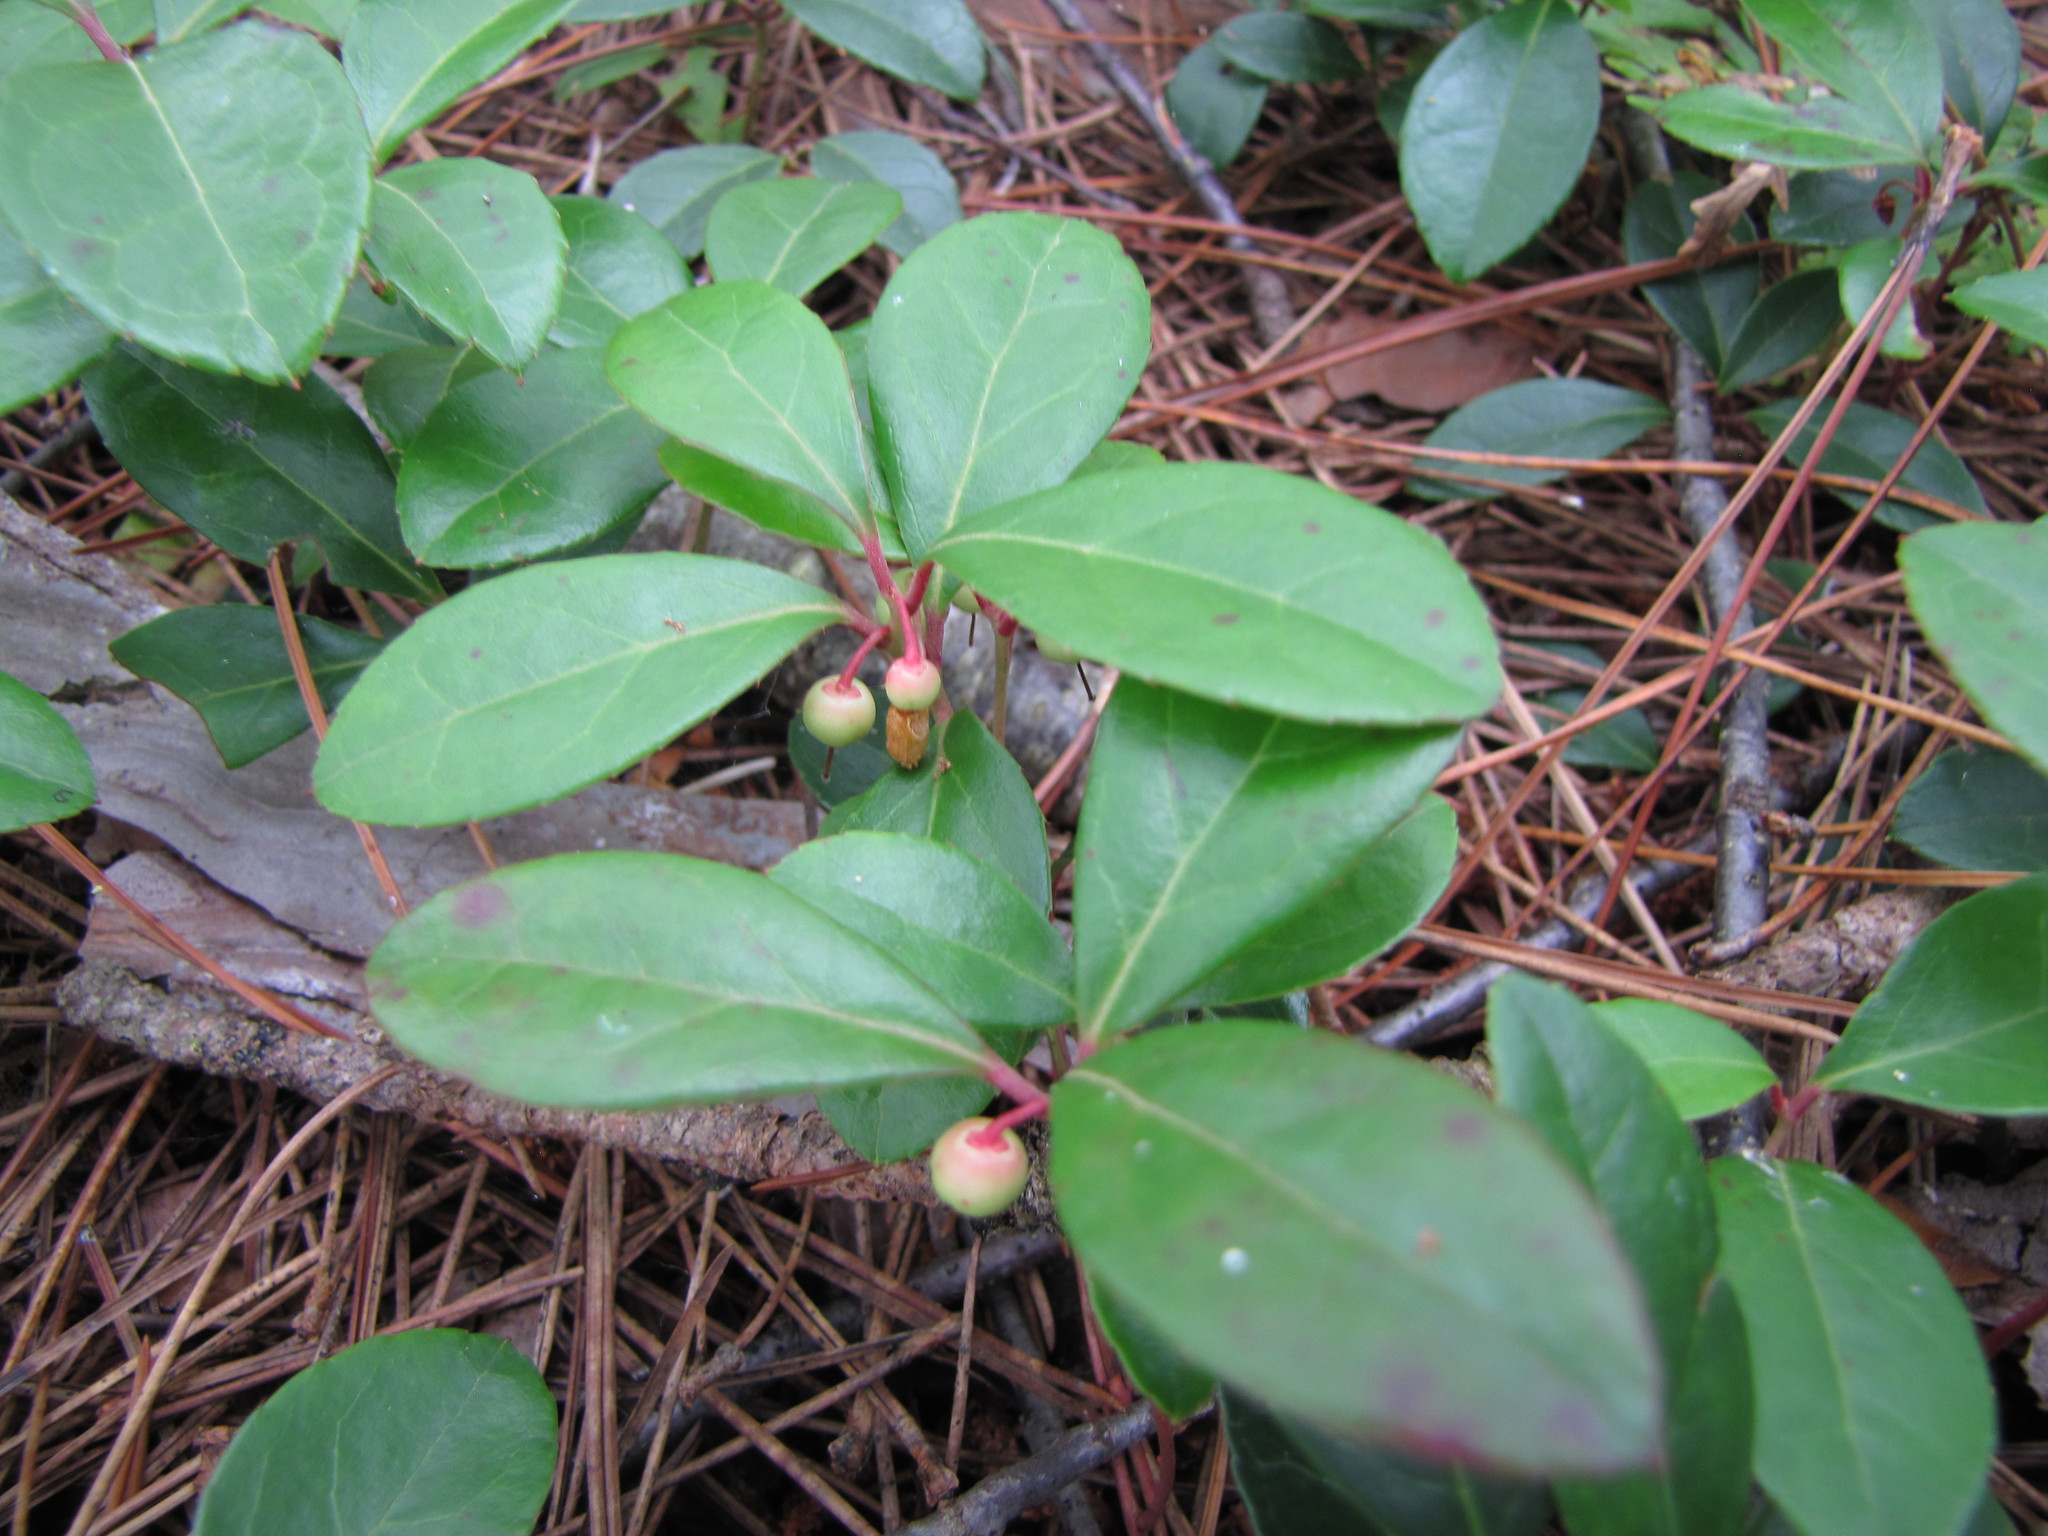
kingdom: Plantae
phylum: Tracheophyta
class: Magnoliopsida
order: Ericales
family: Ericaceae
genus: Gaultheria
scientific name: Gaultheria procumbens
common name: Checkerberry
